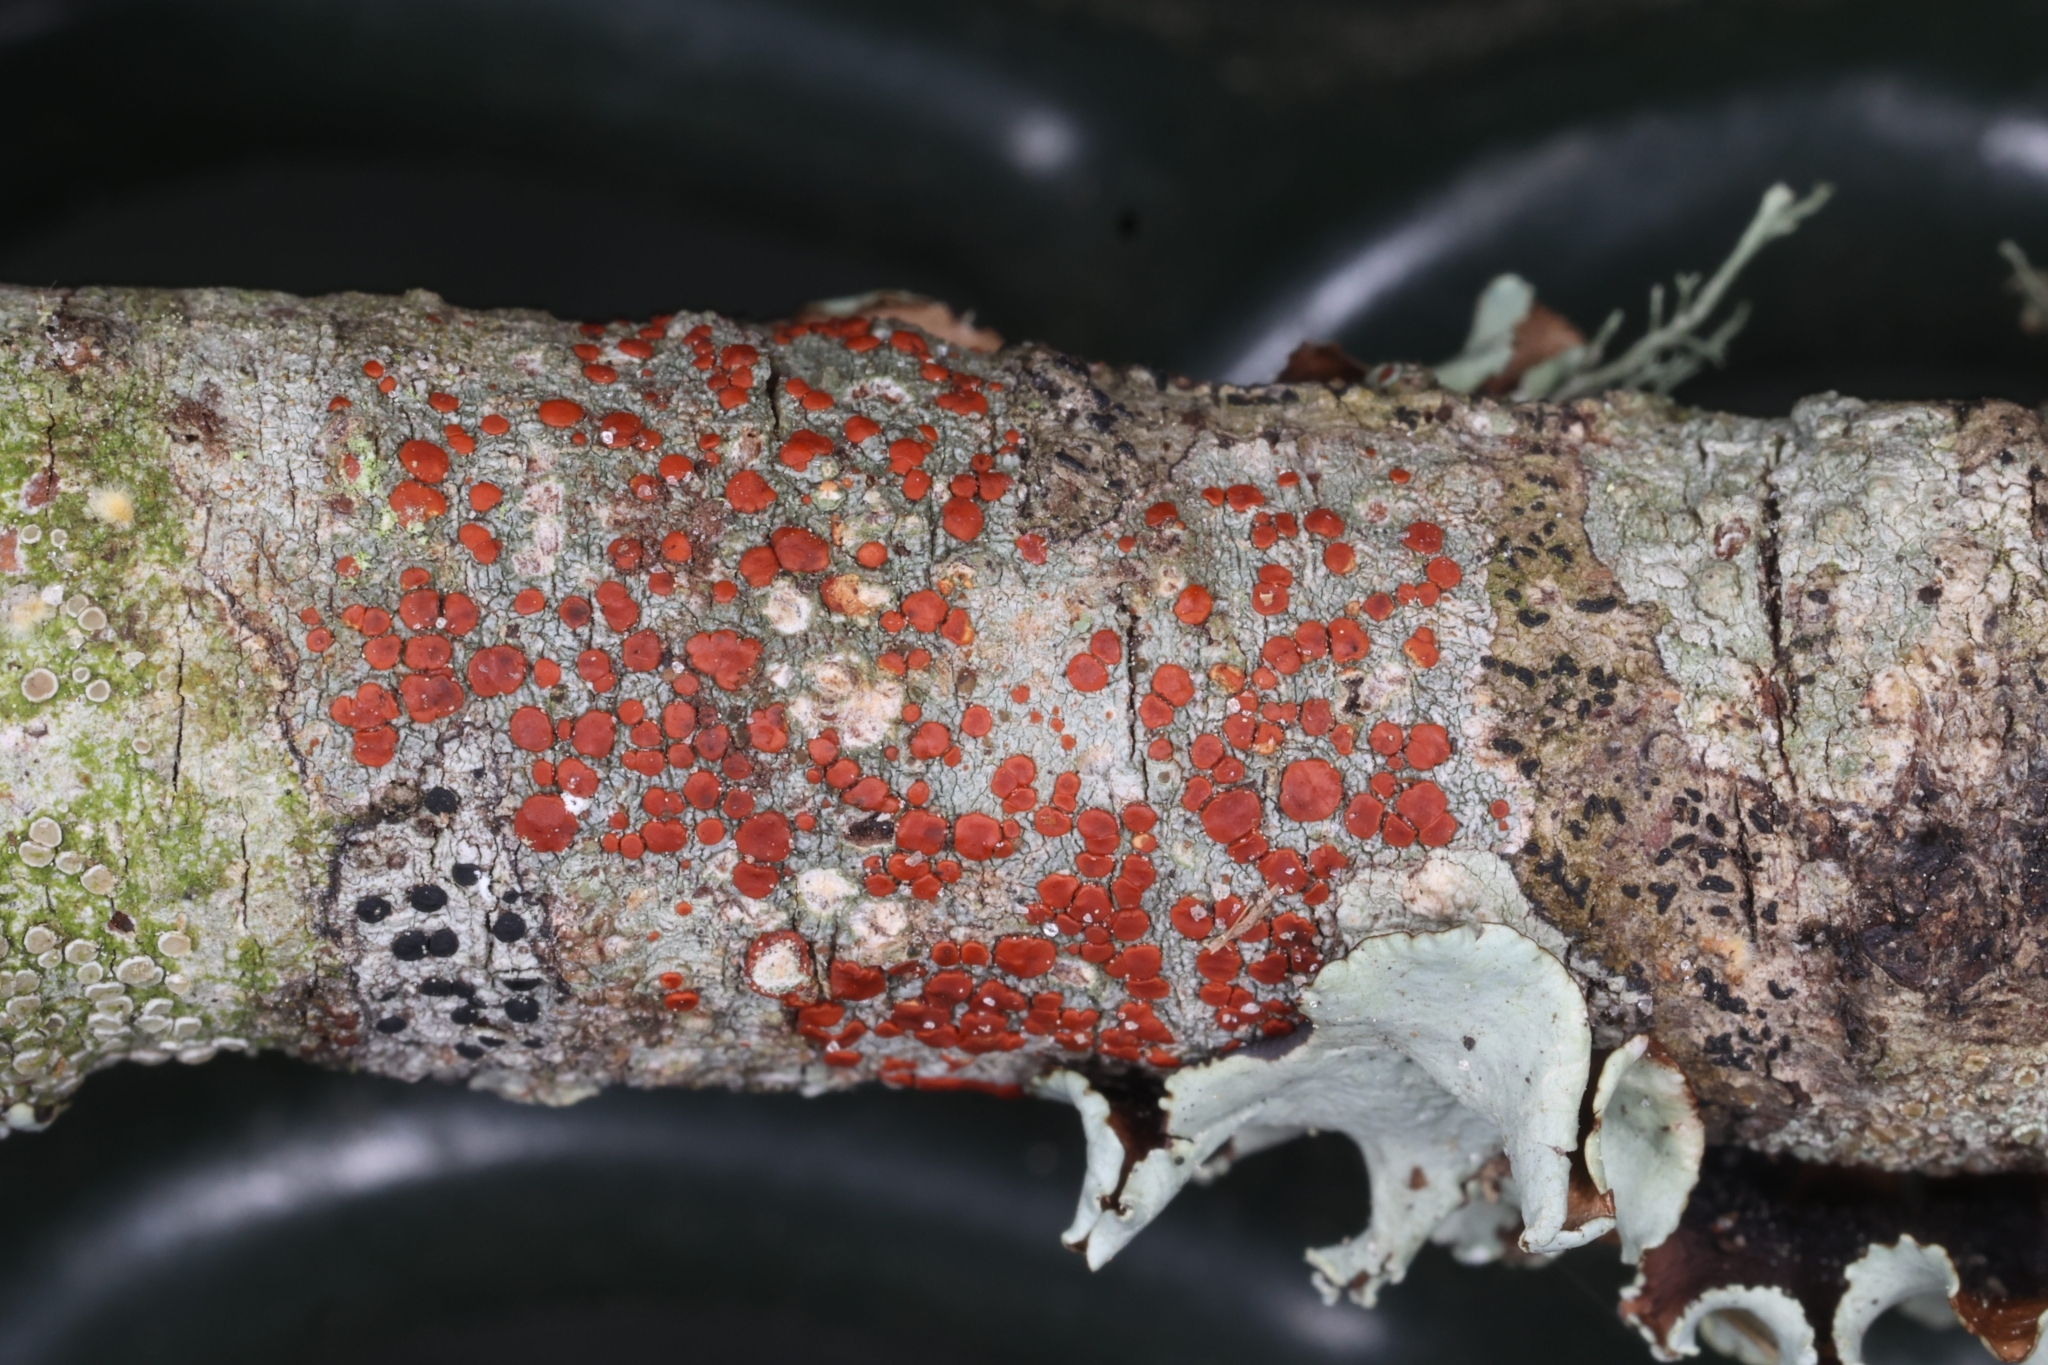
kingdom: Fungi
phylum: Ascomycota
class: Lecanoromycetes
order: Lecanorales
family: Ramboldiaceae
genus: Ramboldia
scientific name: Ramboldia russula
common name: Red heads
